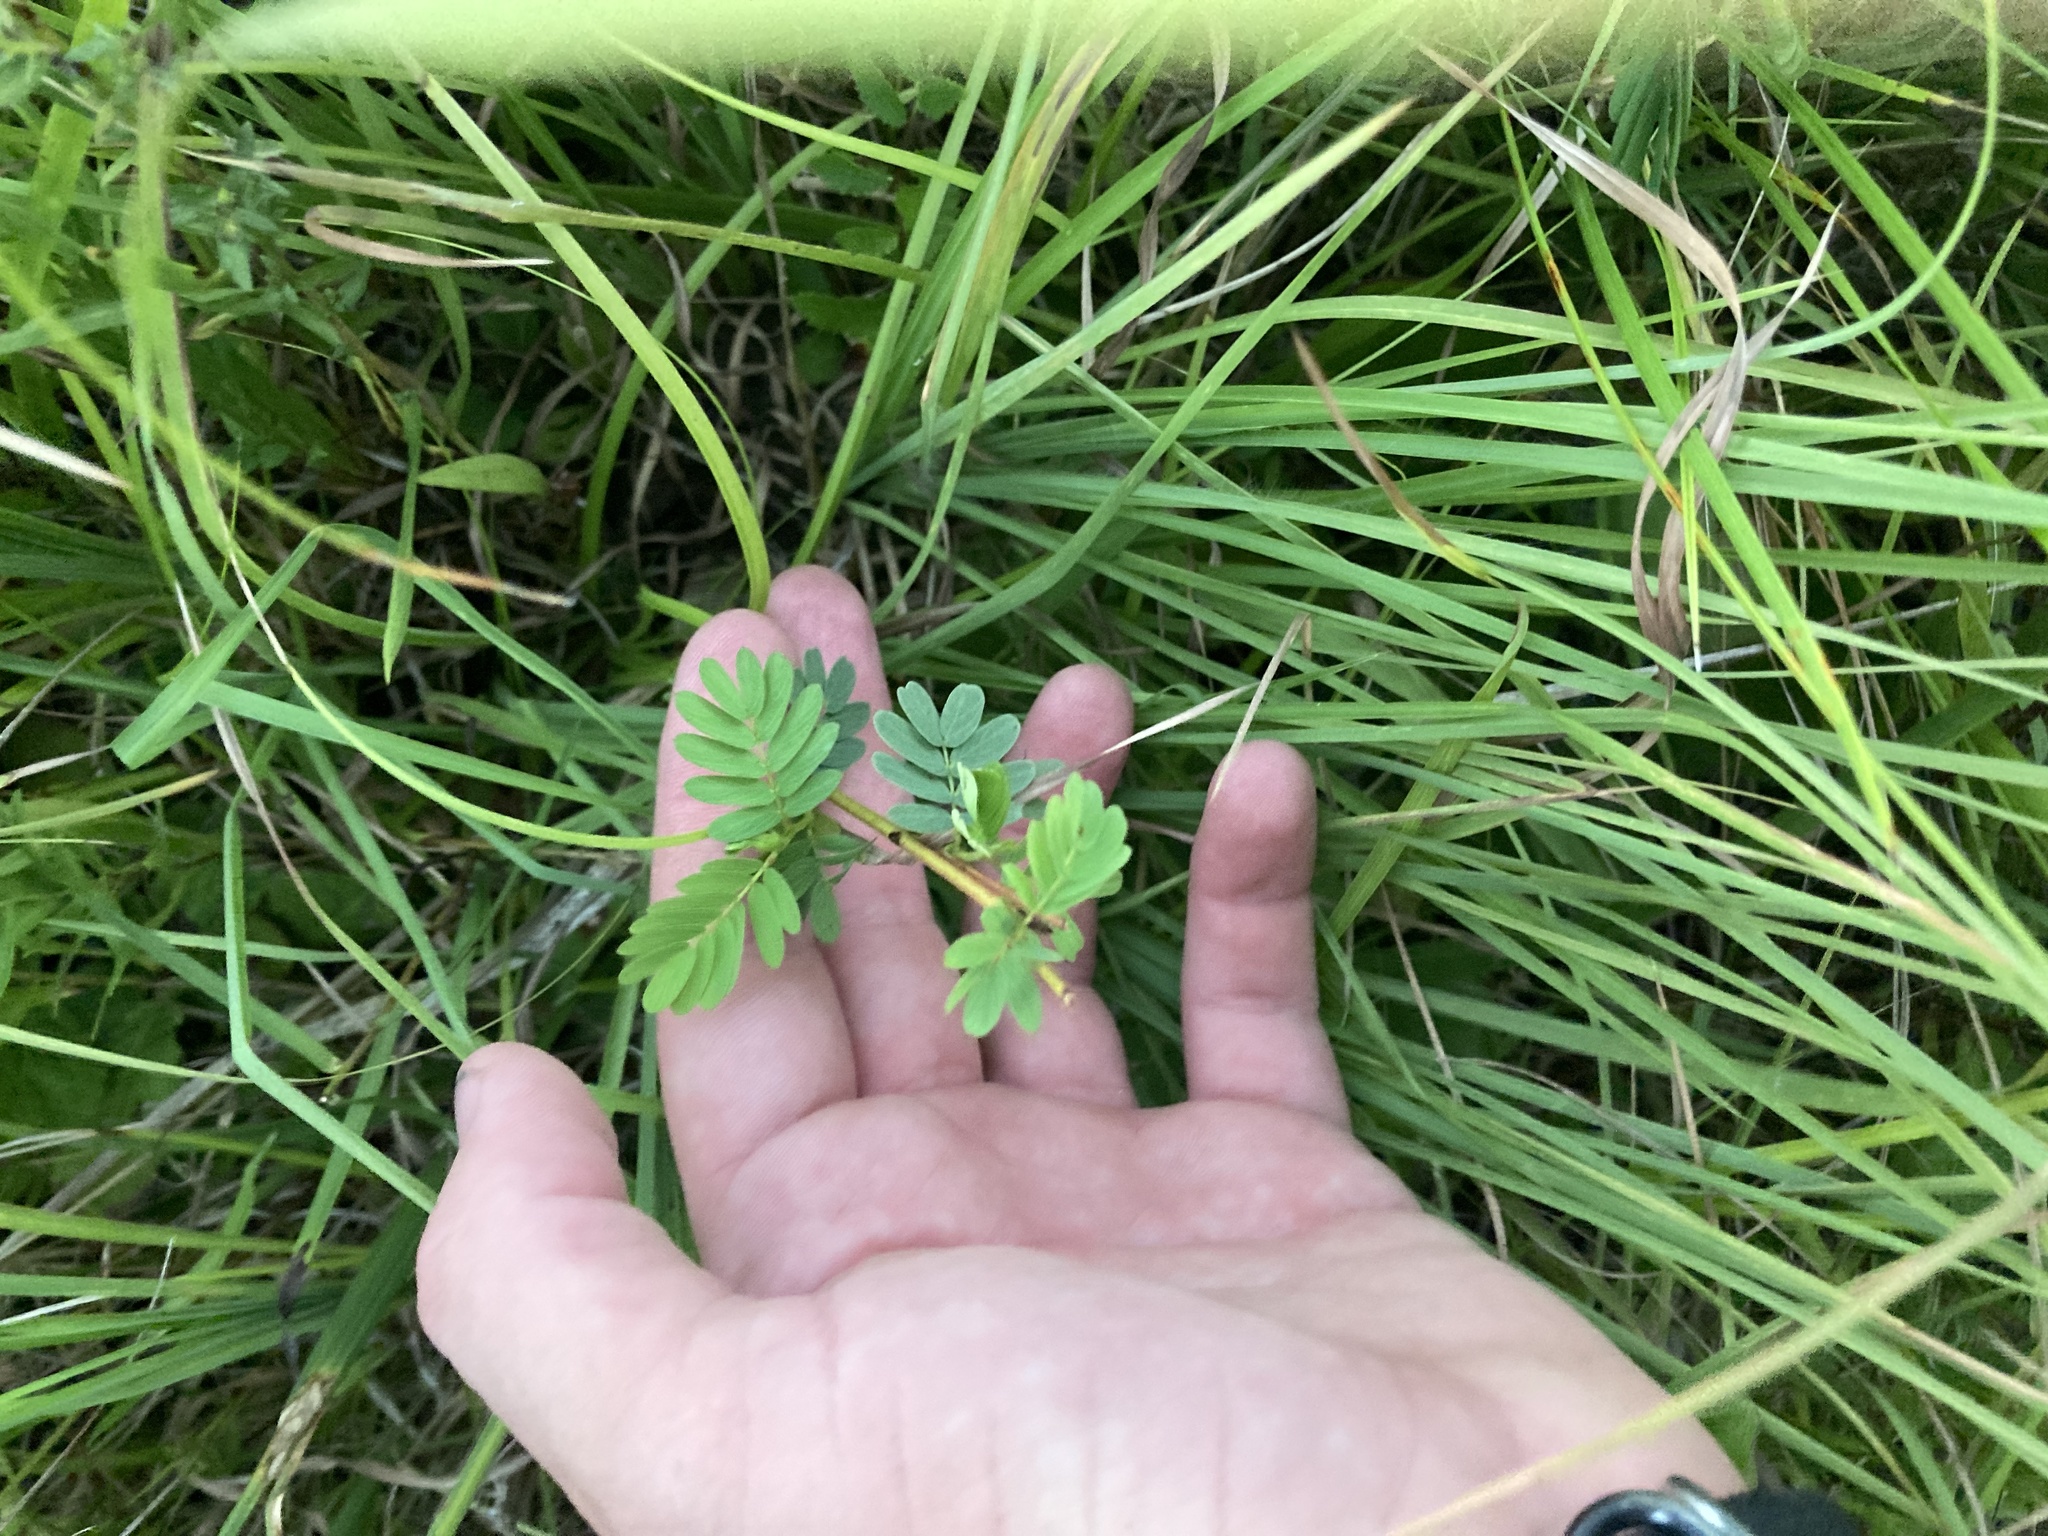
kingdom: Plantae
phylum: Tracheophyta
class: Magnoliopsida
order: Fabales
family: Fabaceae
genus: Desmanthus
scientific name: Desmanthus illinoensis
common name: Illinois bundle-flower
